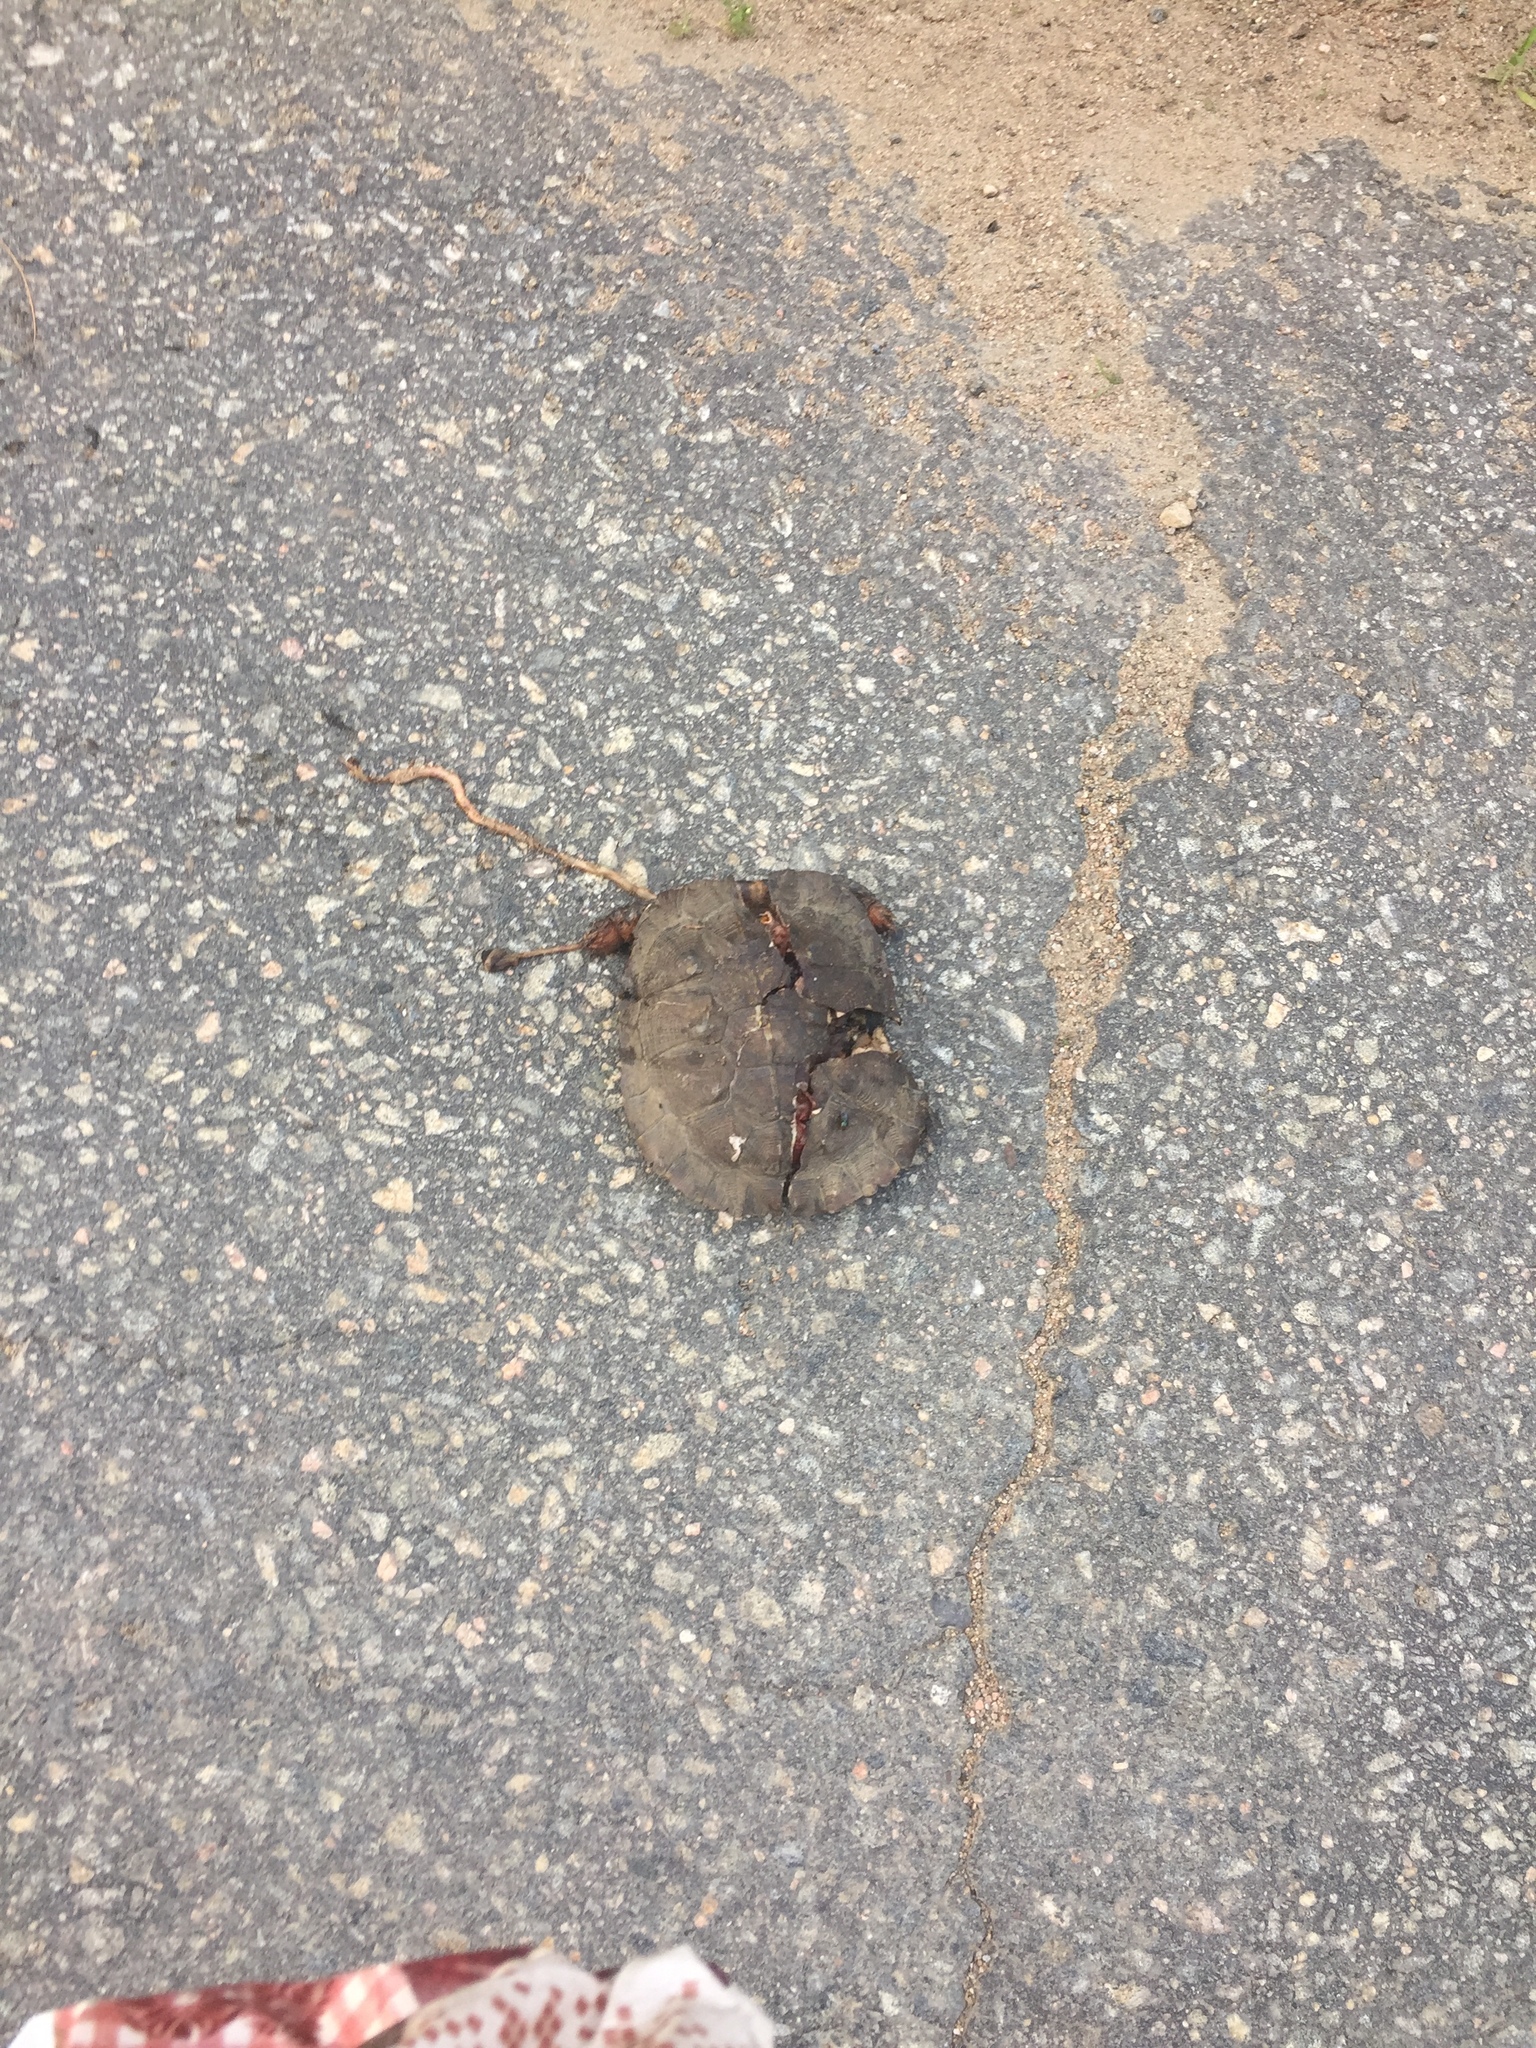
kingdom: Animalia
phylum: Chordata
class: Testudines
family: Emydidae
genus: Glyptemys
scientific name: Glyptemys insculpta
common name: Wood turtle
